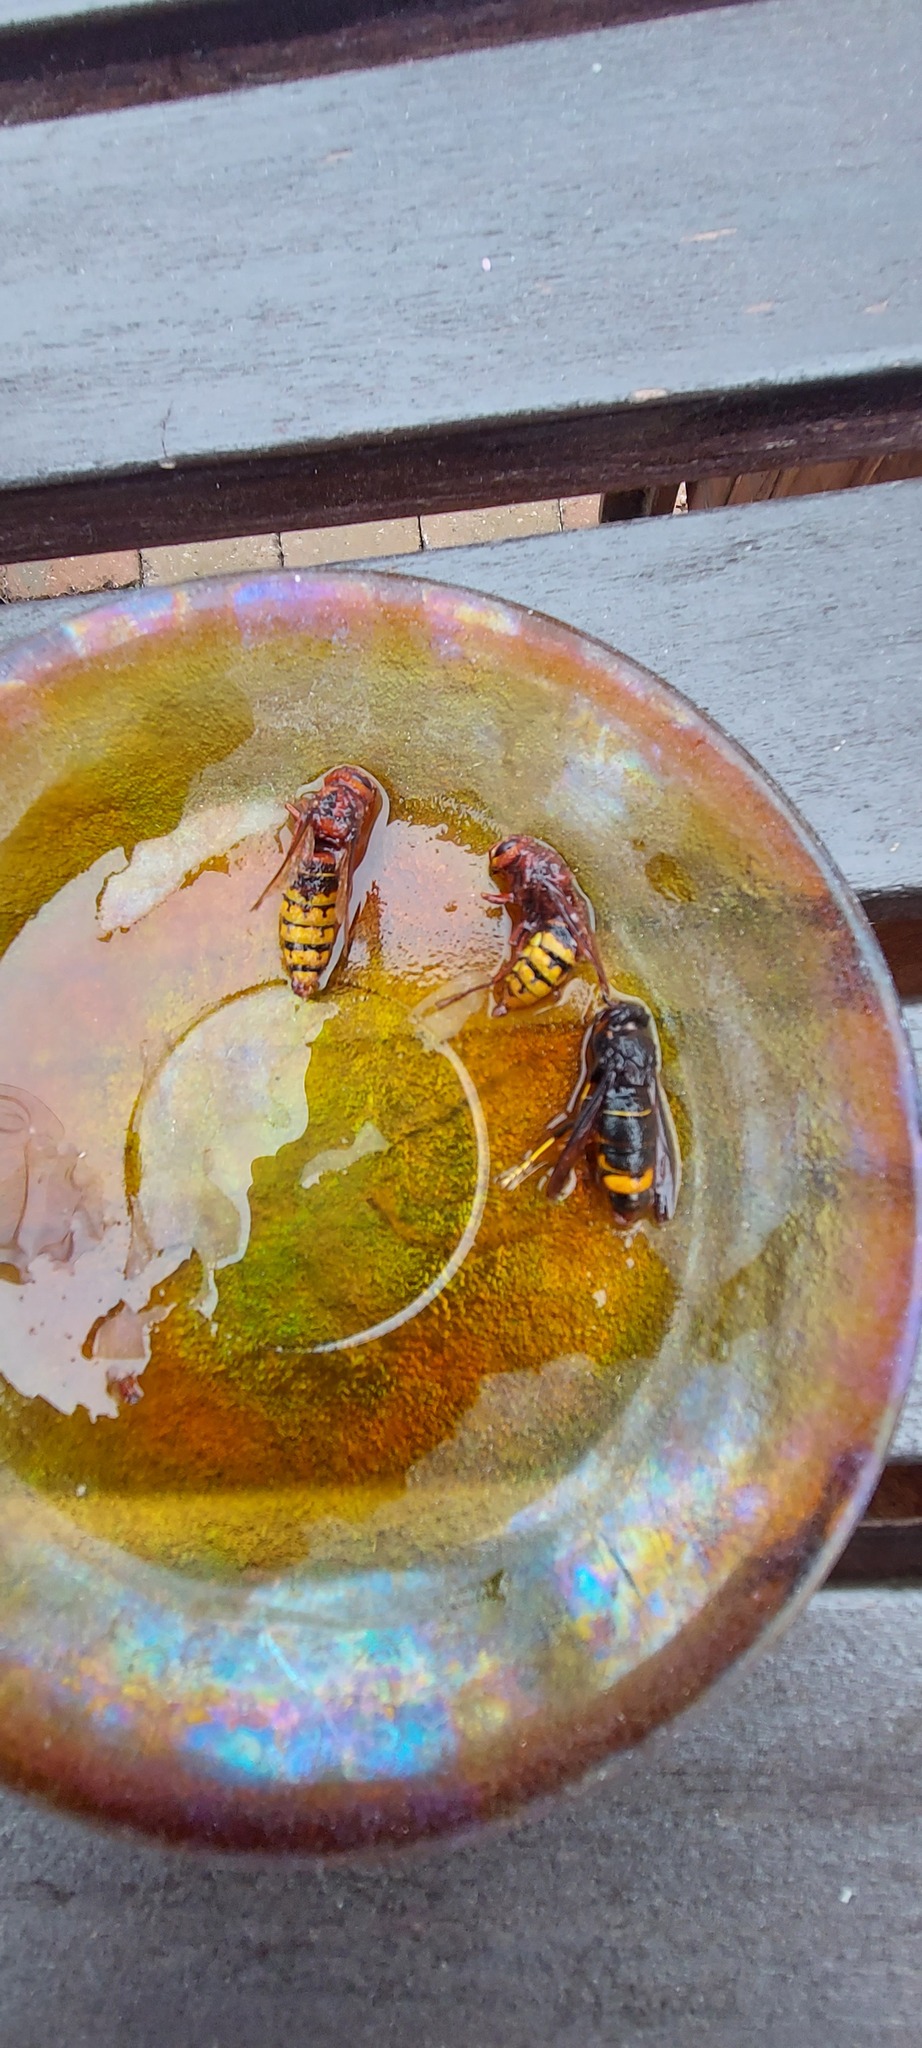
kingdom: Animalia
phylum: Arthropoda
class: Insecta
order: Hymenoptera
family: Vespidae
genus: Vespa
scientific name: Vespa velutina
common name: Asian hornet
